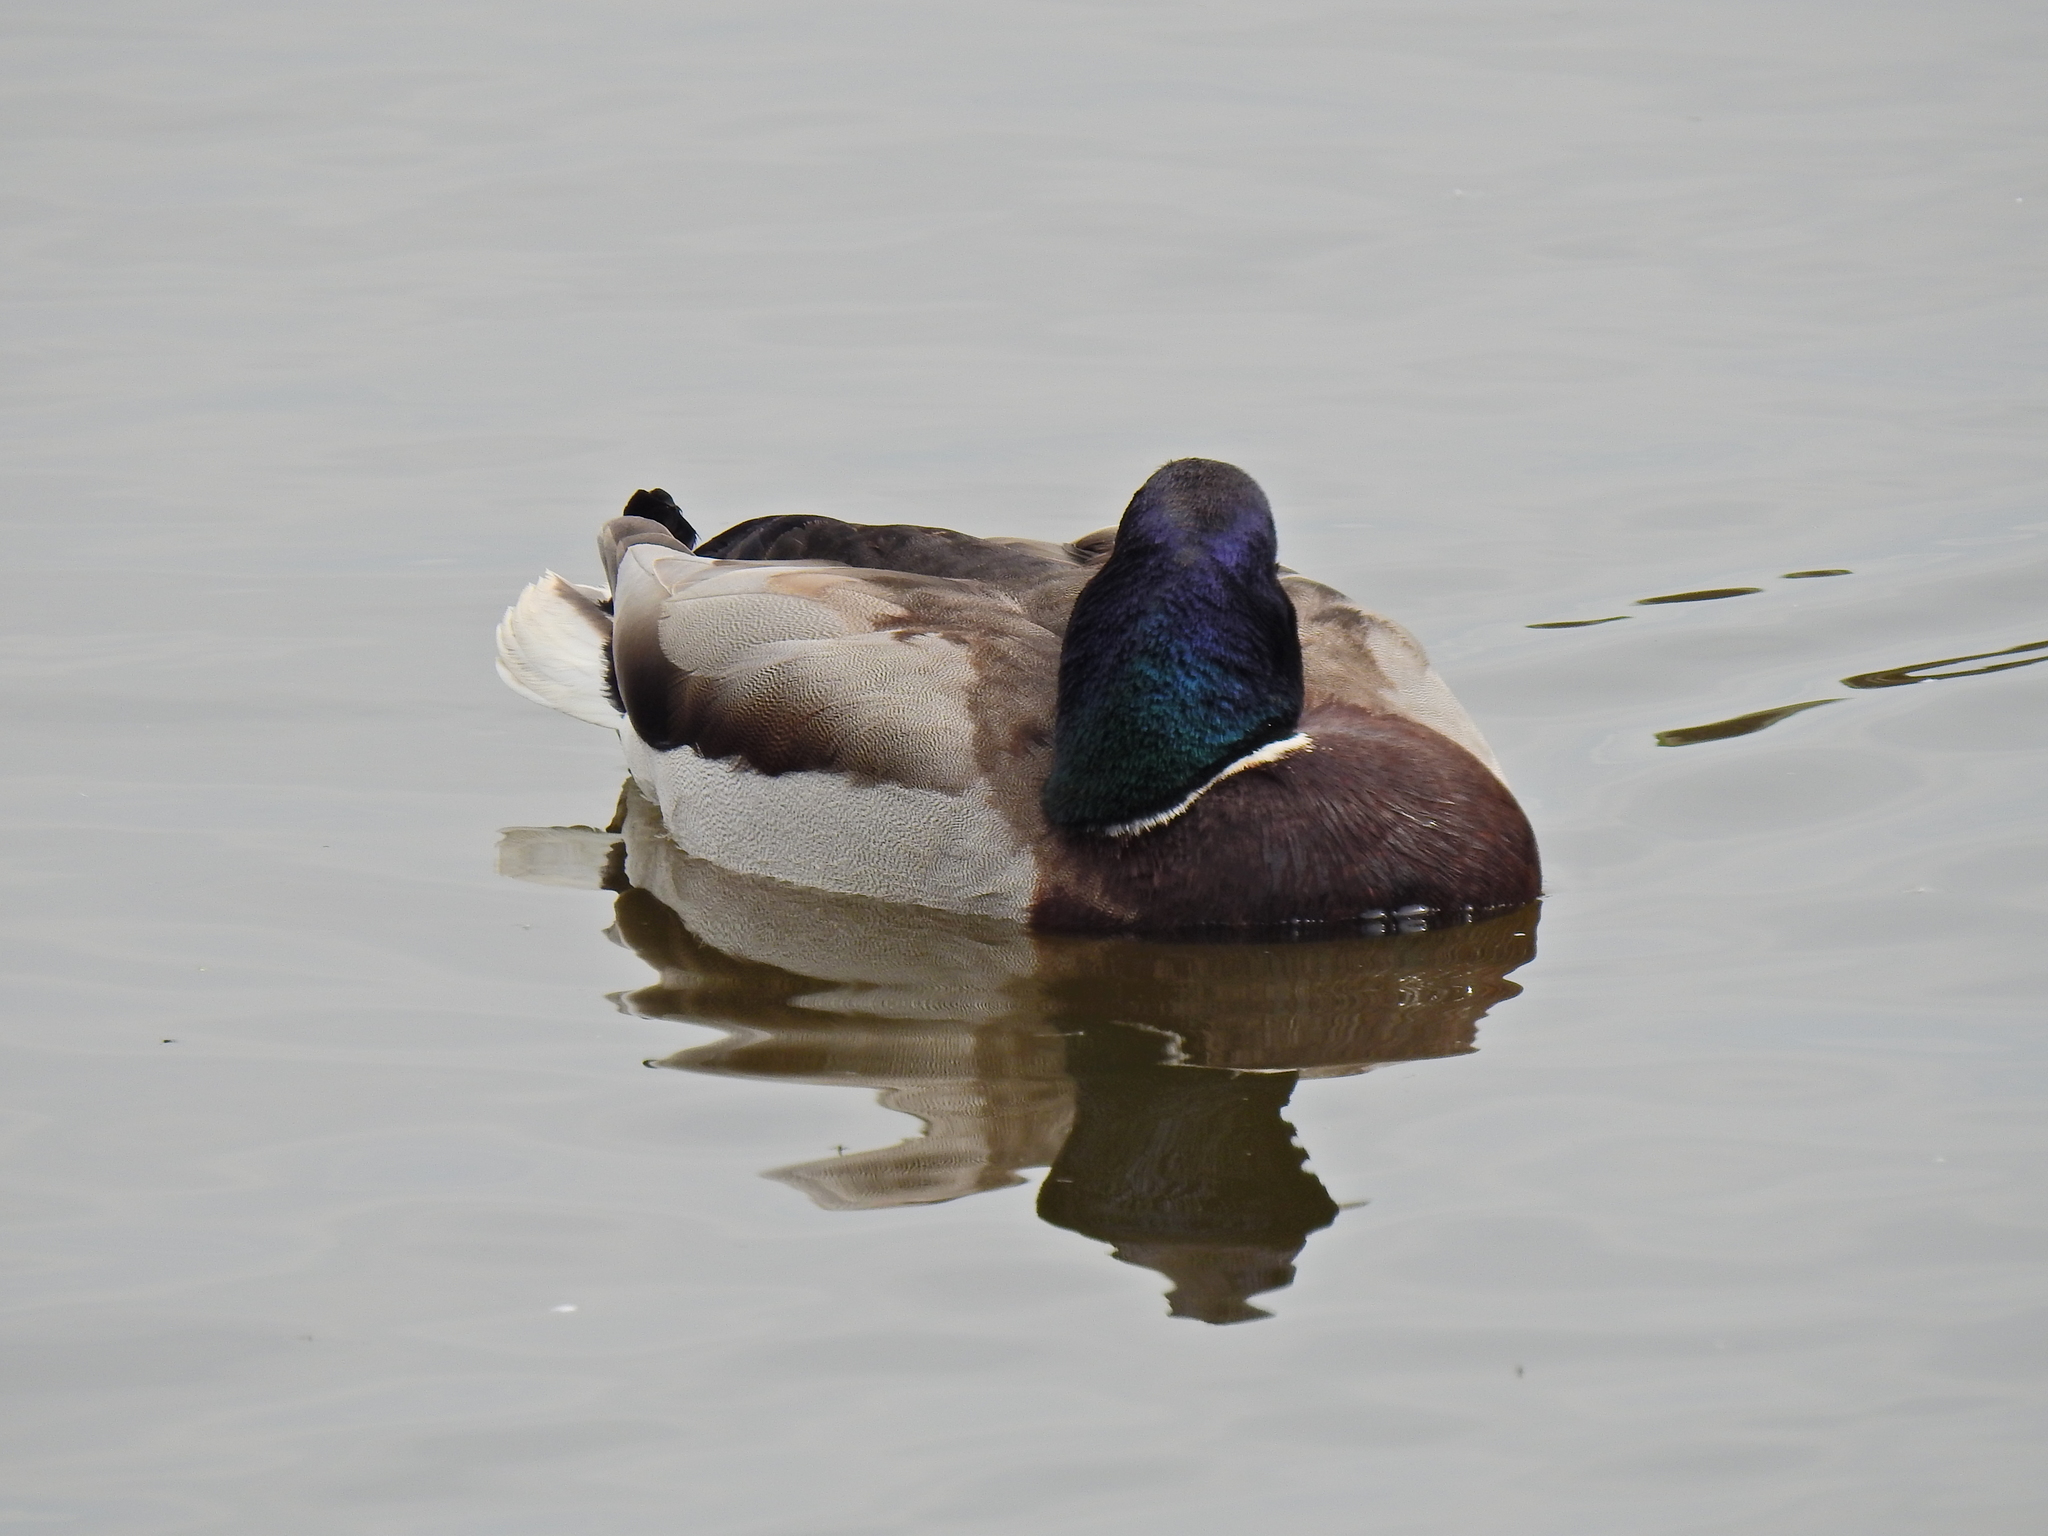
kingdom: Animalia
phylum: Chordata
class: Aves
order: Anseriformes
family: Anatidae
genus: Anas
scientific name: Anas platyrhynchos
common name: Mallard
